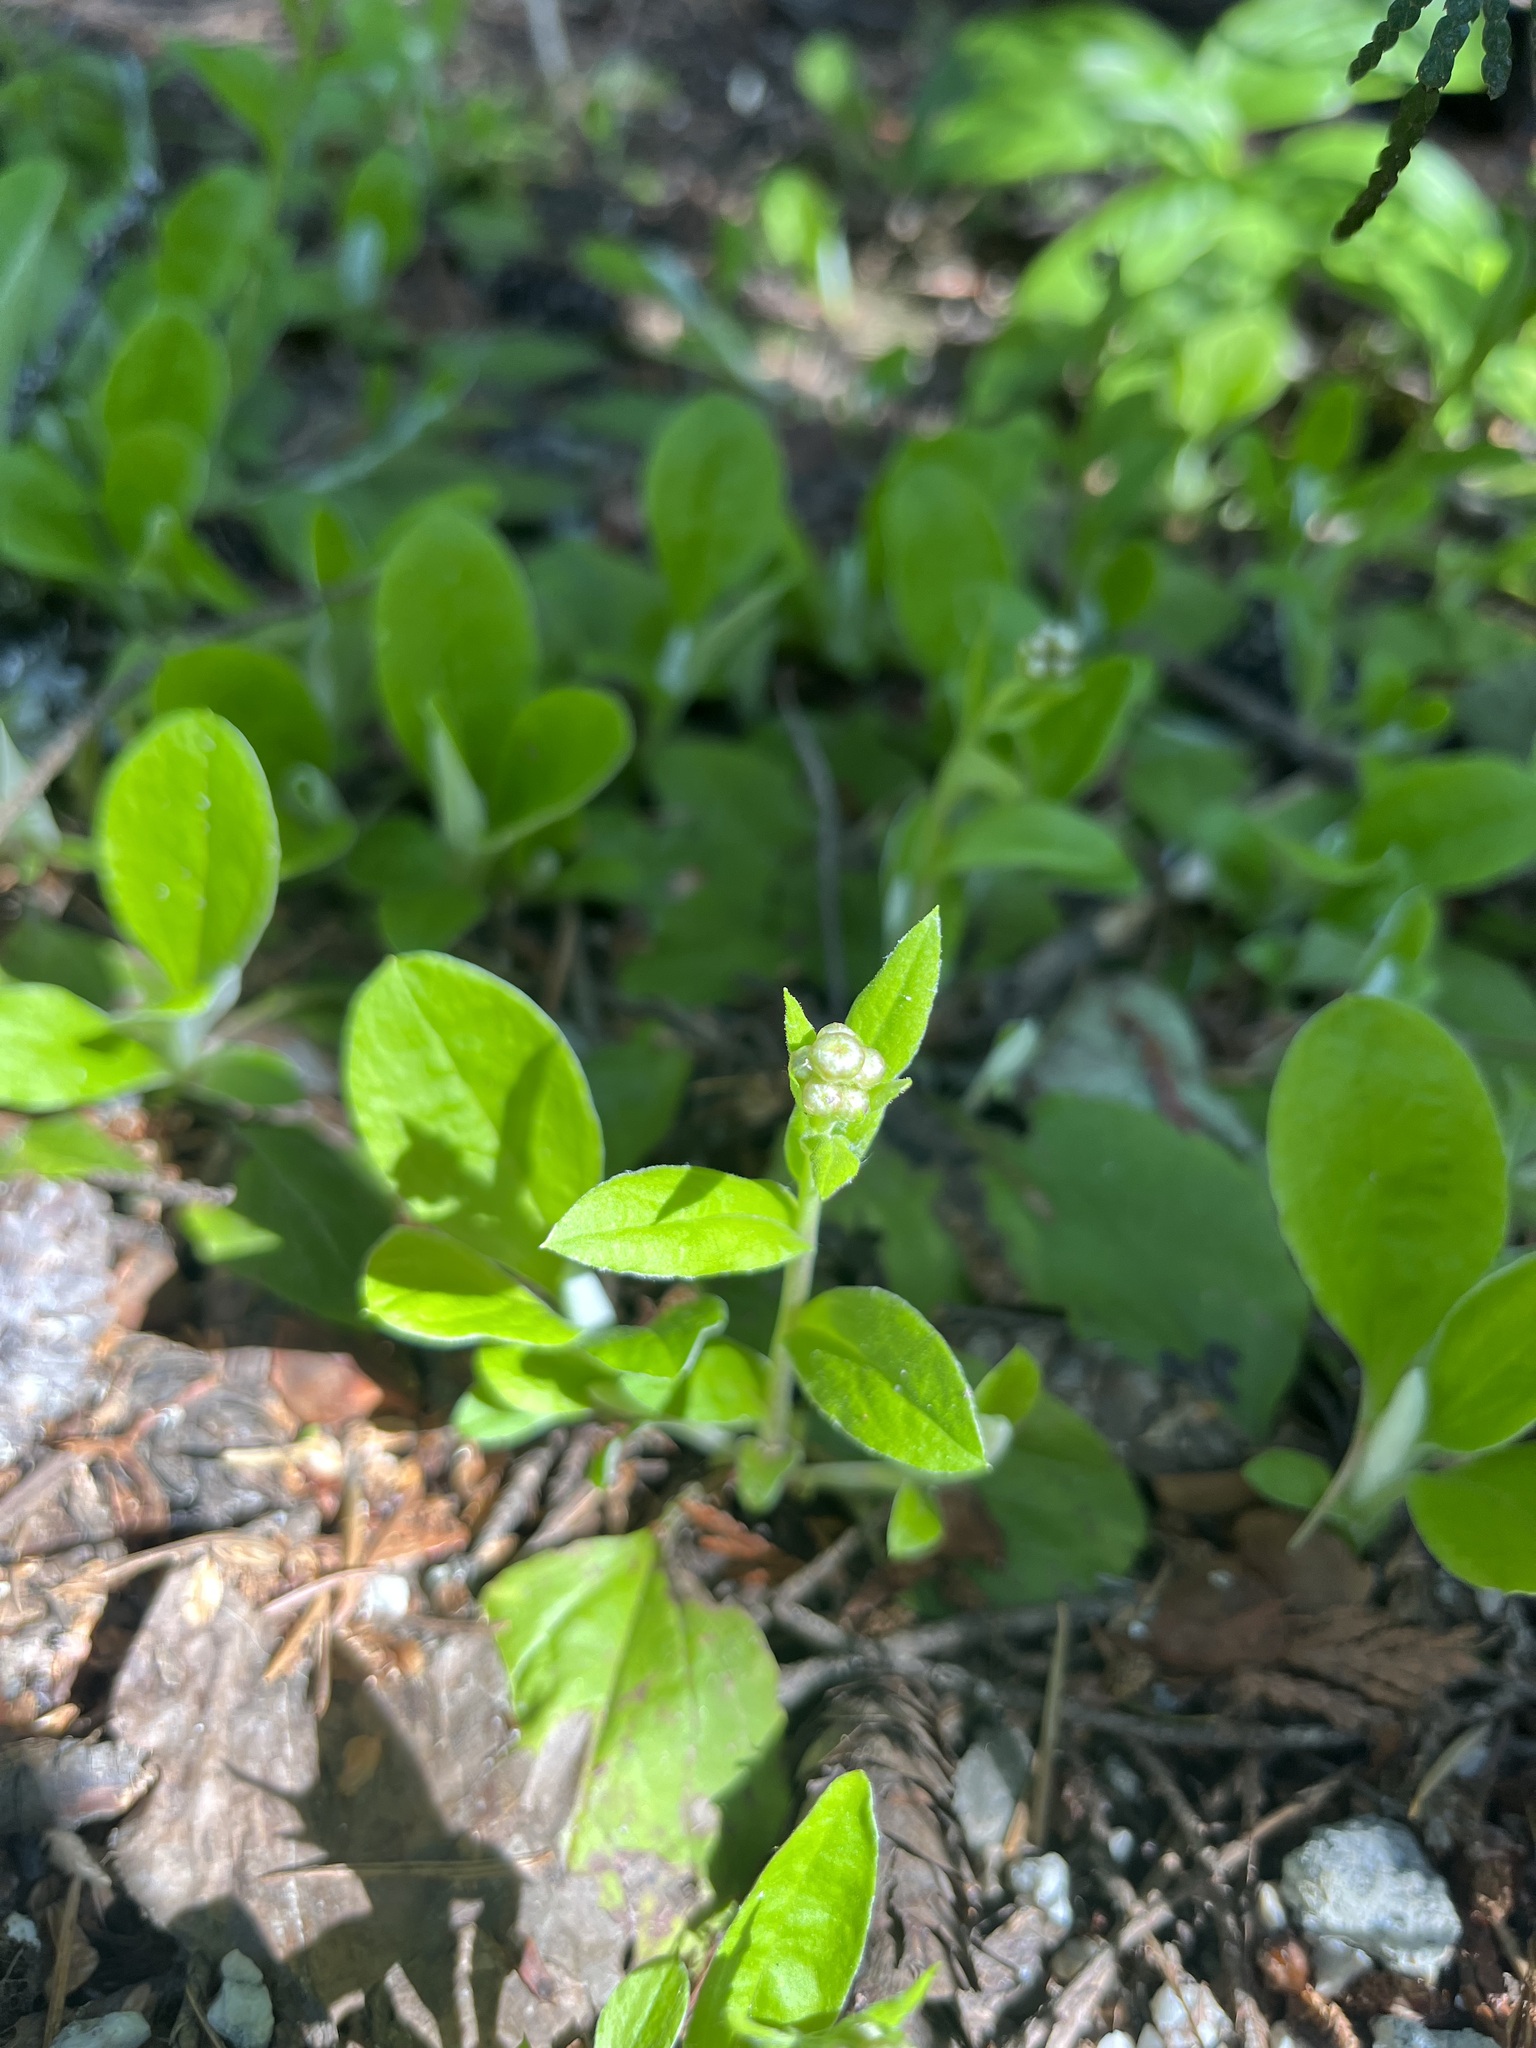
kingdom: Plantae
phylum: Tracheophyta
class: Magnoliopsida
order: Asterales
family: Asteraceae
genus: Antennaria
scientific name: Antennaria racemosa
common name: Racemose pussytoes
